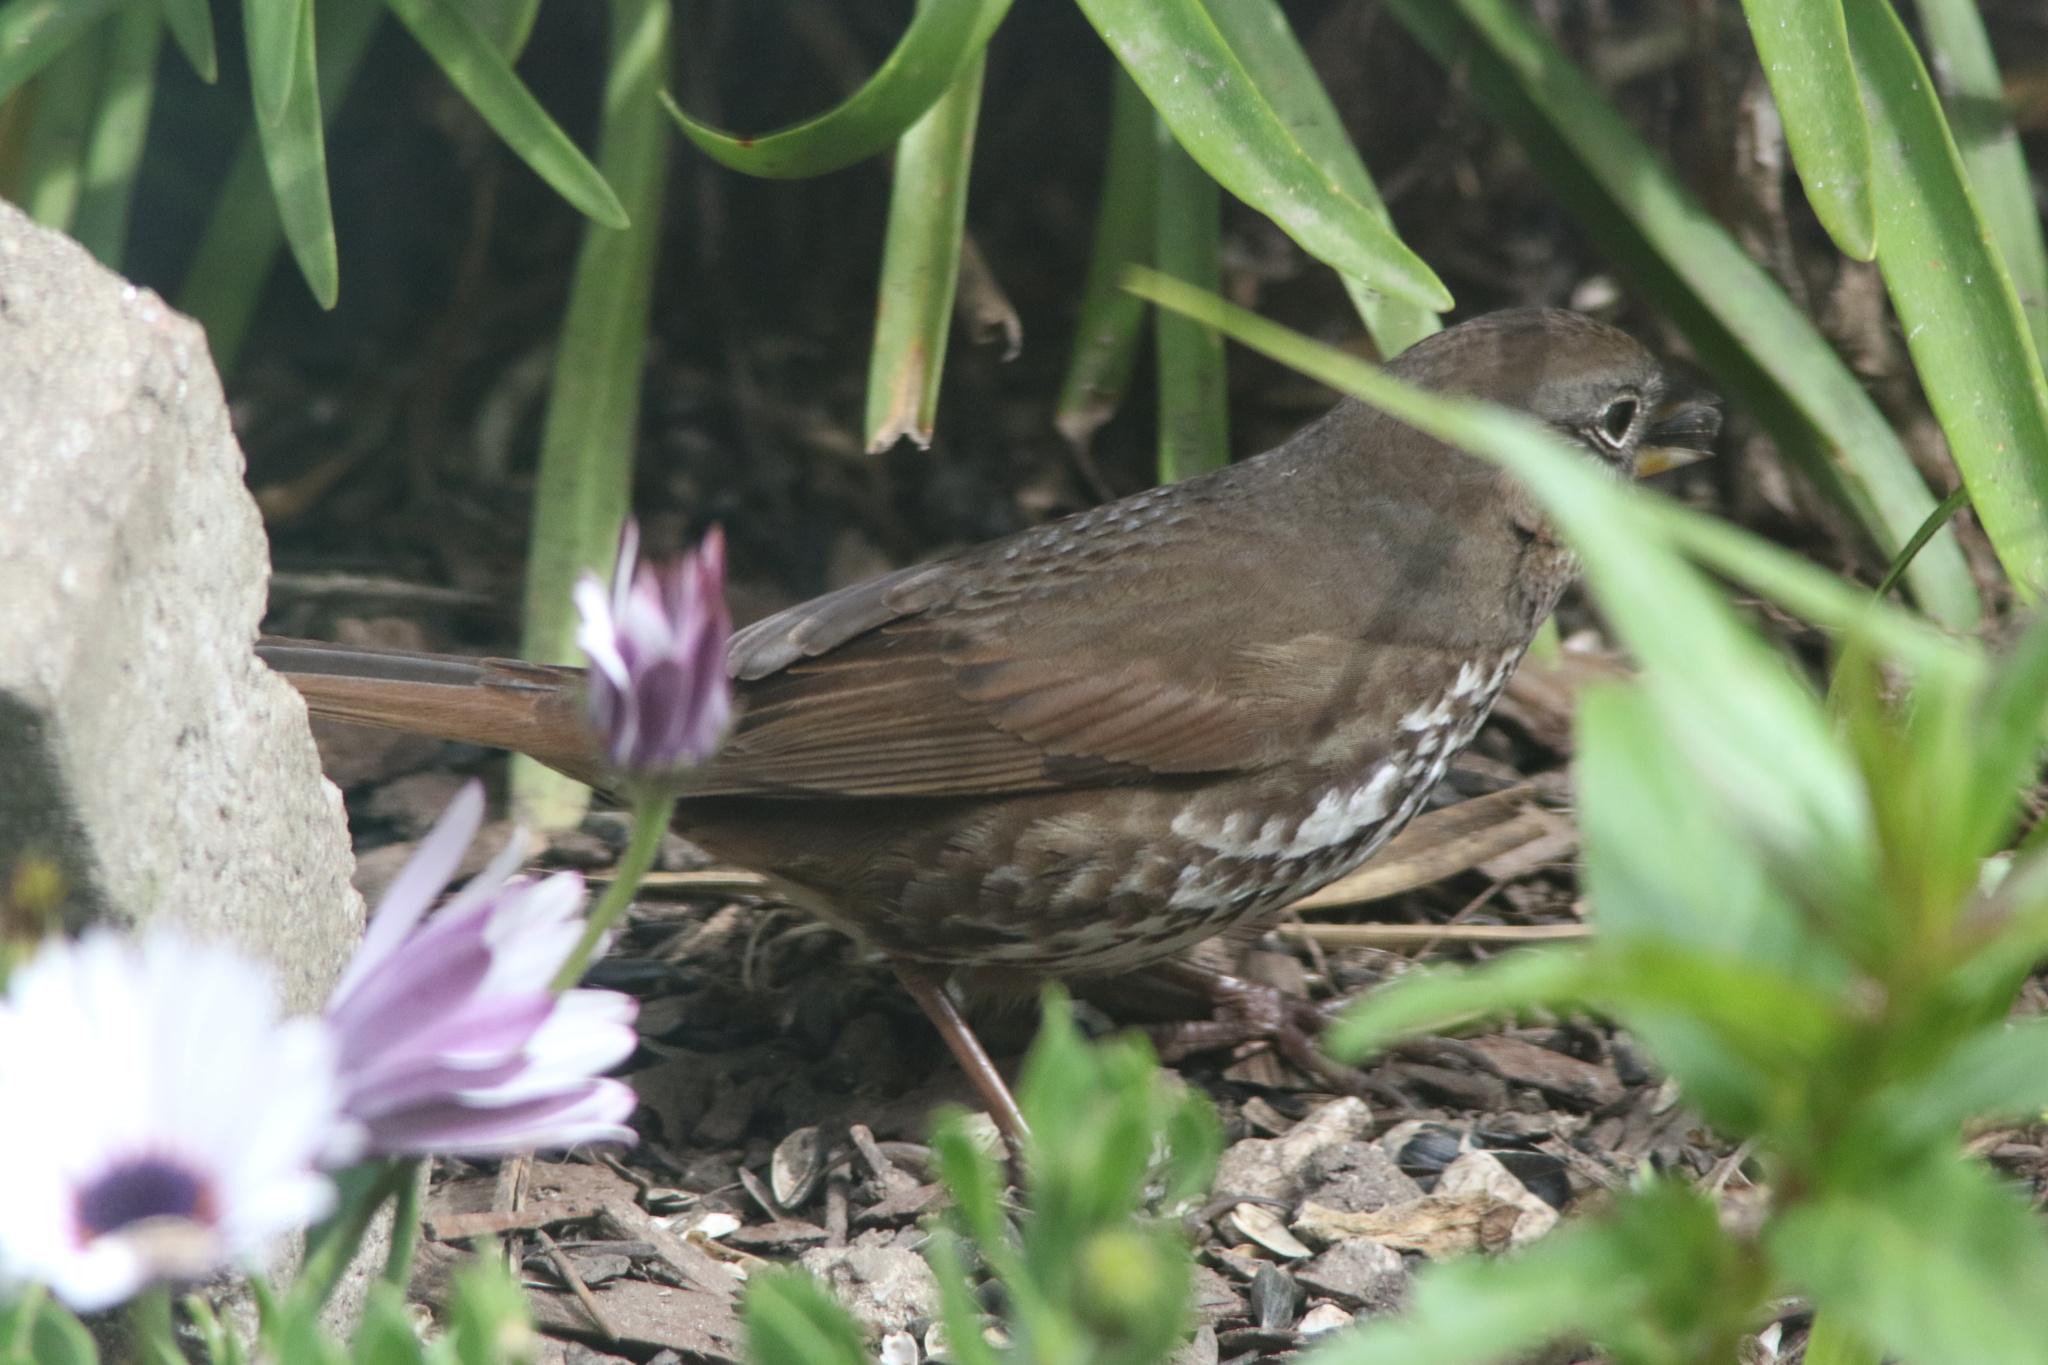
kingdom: Animalia
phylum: Chordata
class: Aves
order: Passeriformes
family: Passerellidae
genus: Passerella
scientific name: Passerella iliaca
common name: Fox sparrow
